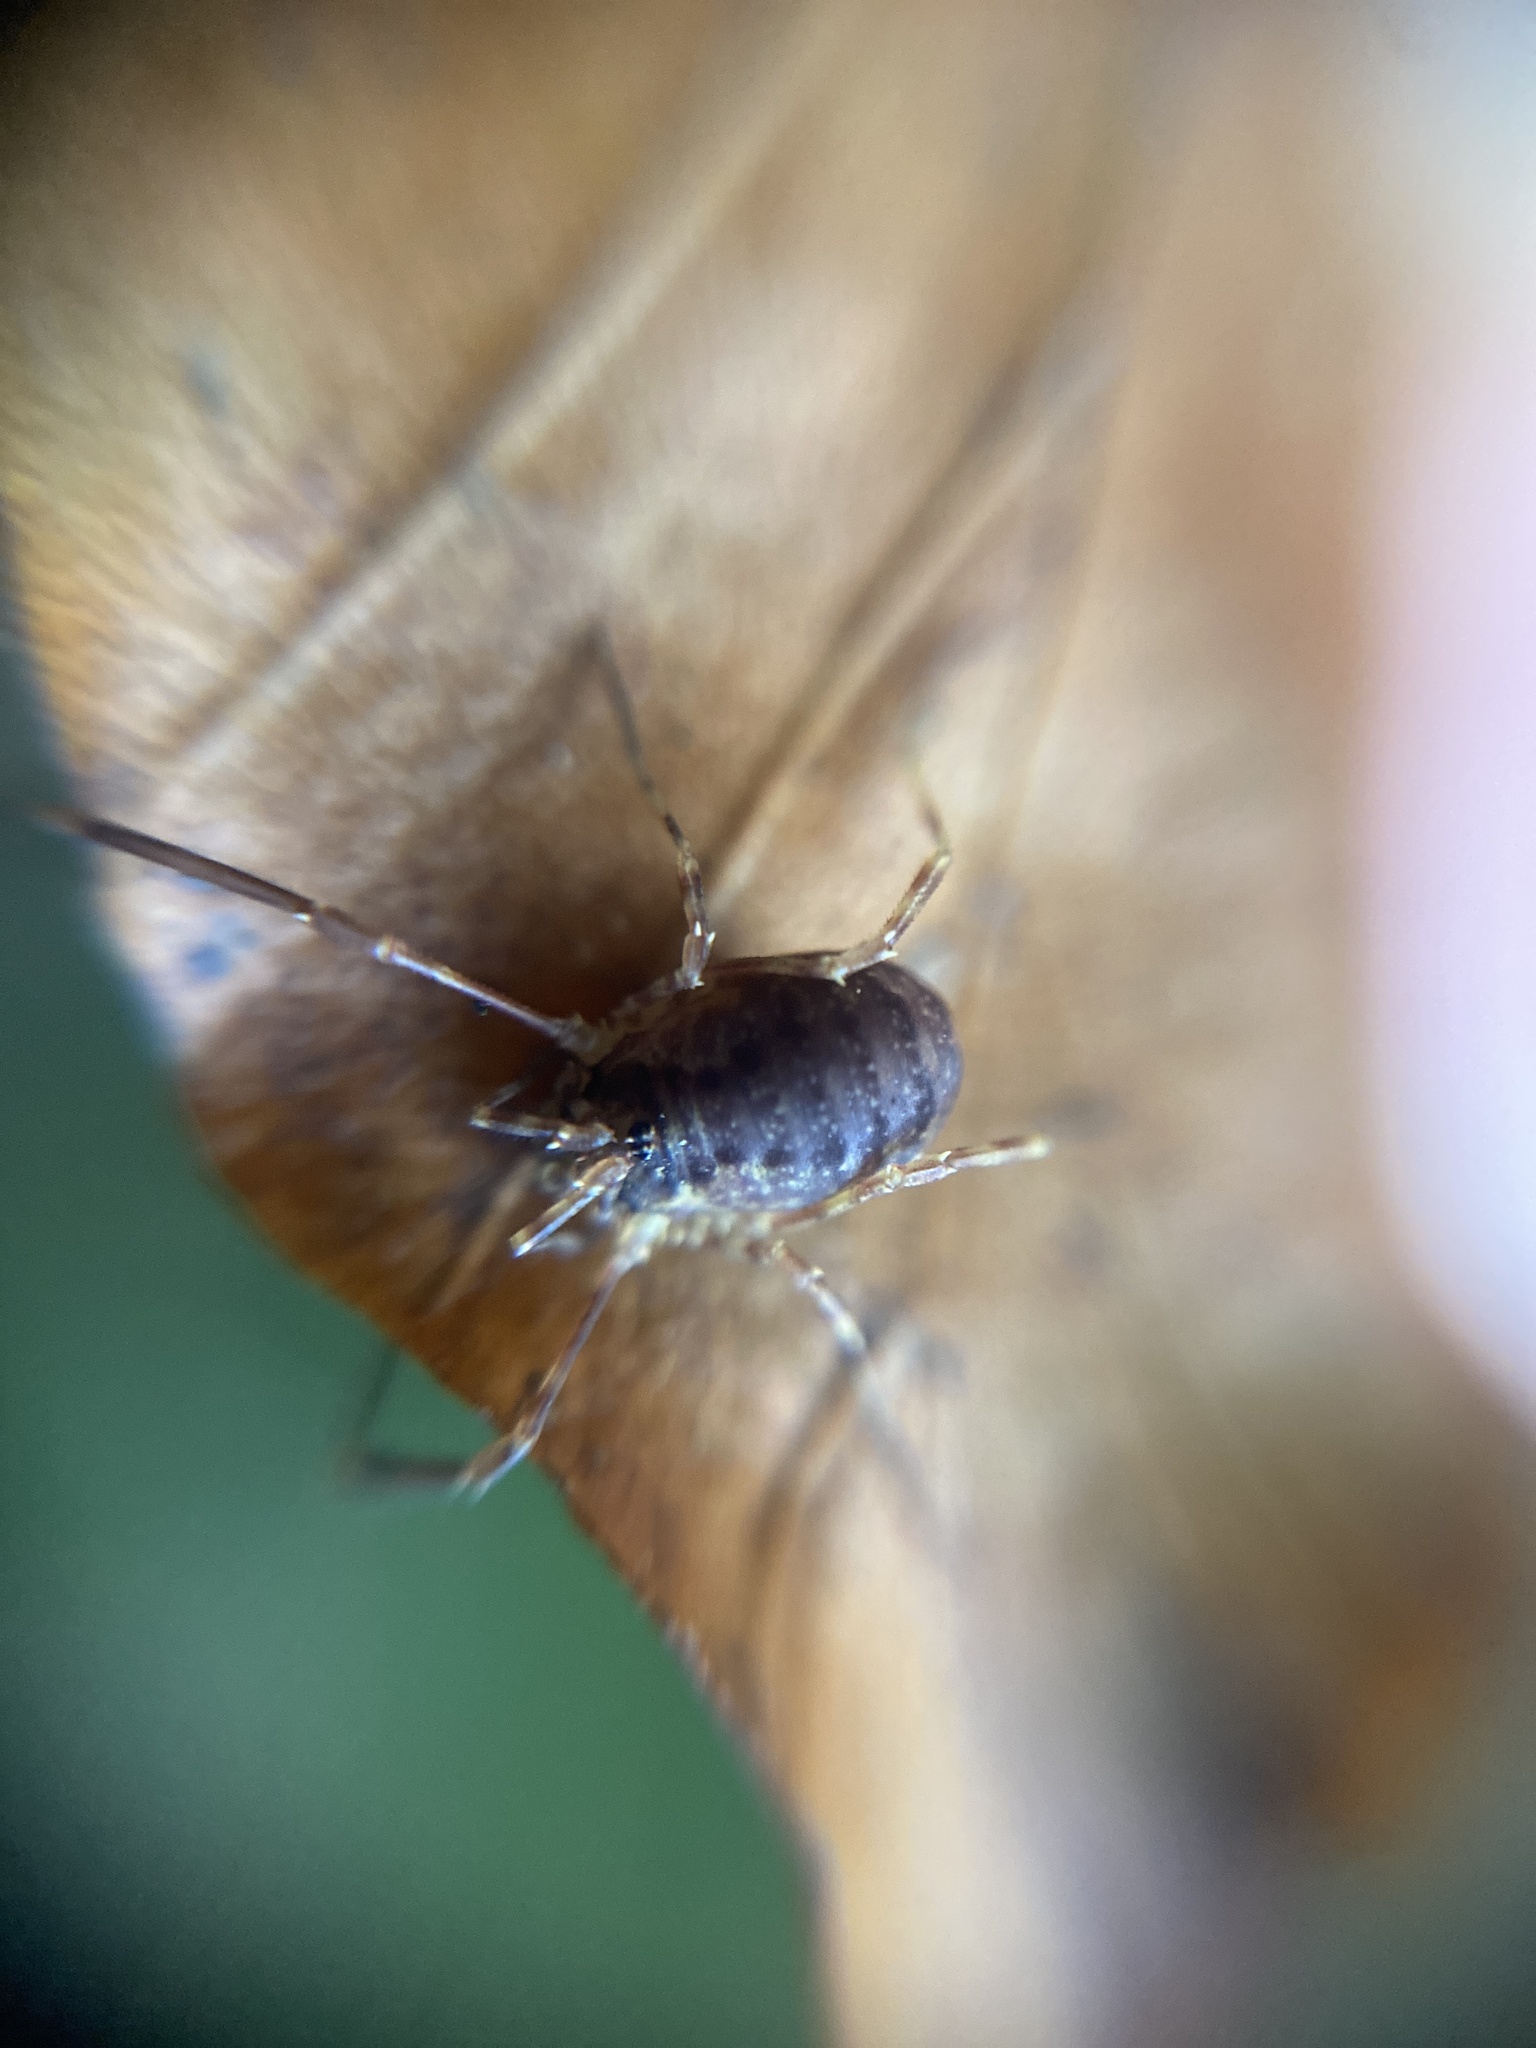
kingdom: Animalia
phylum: Arthropoda
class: Arachnida
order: Opiliones
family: Phalangiidae
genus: Lophopilio
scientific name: Lophopilio palpinalis
